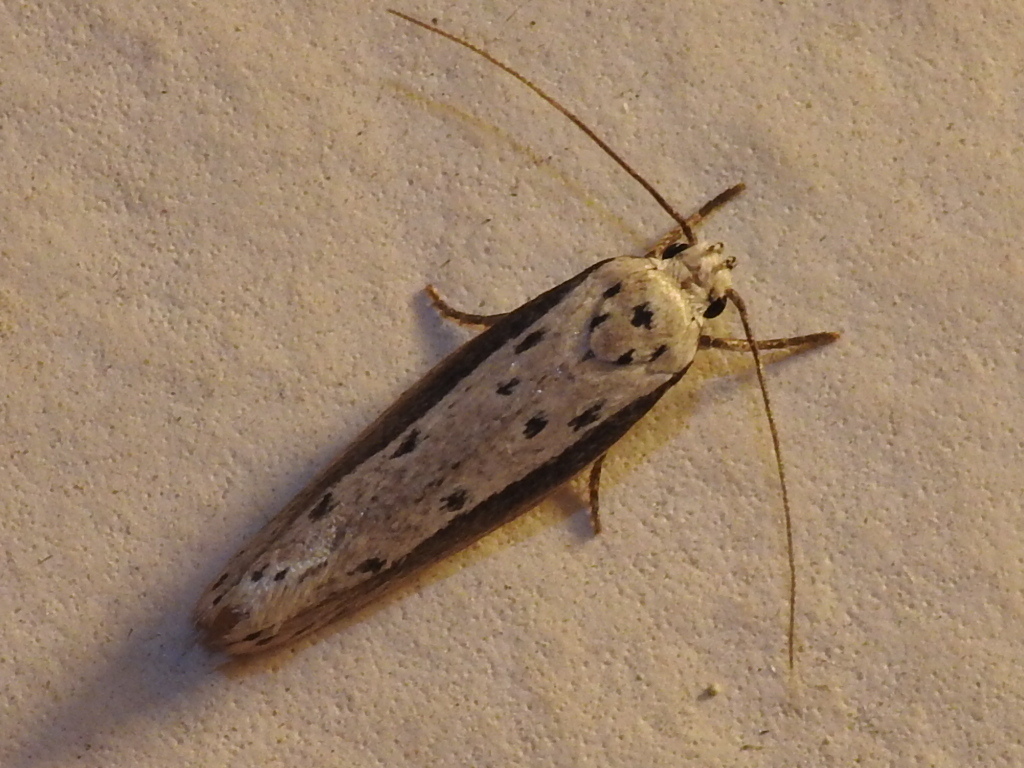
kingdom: Animalia
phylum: Arthropoda
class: Insecta
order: Lepidoptera
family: Ethmiidae
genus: Ethmia
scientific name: Ethmia hagenella
